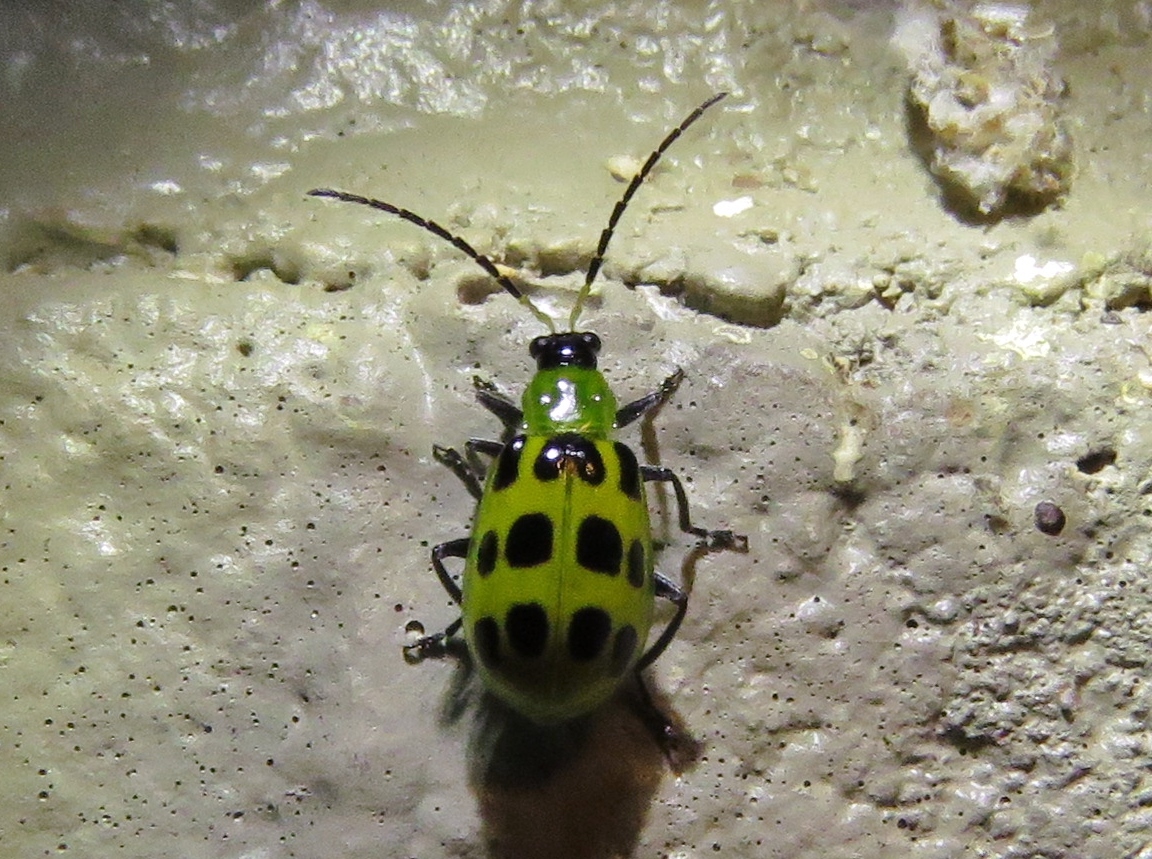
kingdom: Animalia
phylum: Arthropoda
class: Insecta
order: Coleoptera
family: Chrysomelidae
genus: Diabrotica
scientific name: Diabrotica undecimpunctata
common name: Spotted cucumber beetle
